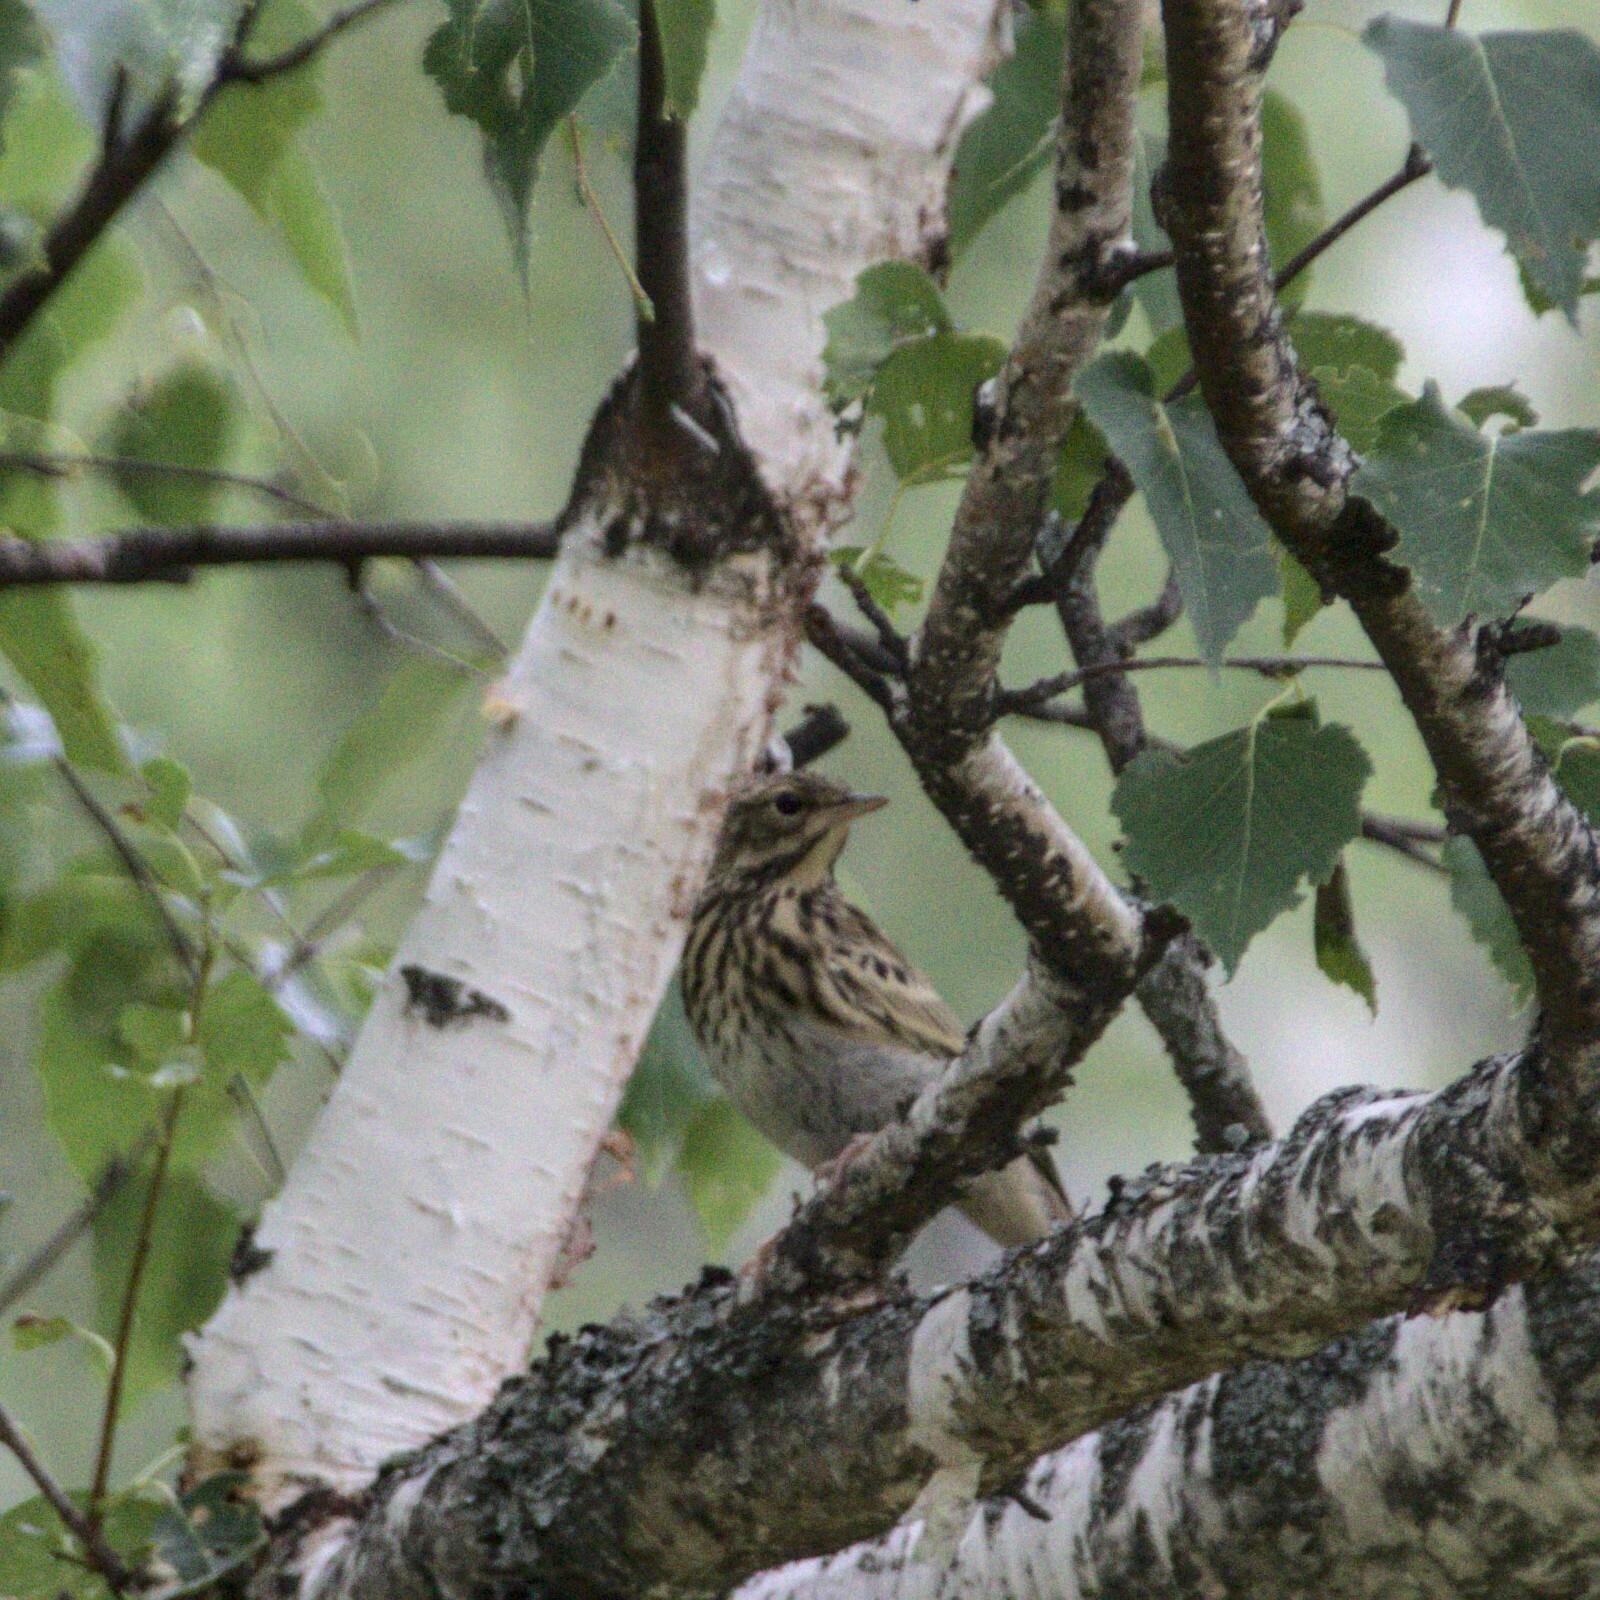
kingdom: Animalia
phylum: Chordata
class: Aves
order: Passeriformes
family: Motacillidae
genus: Anthus
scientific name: Anthus trivialis
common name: Tree pipit
